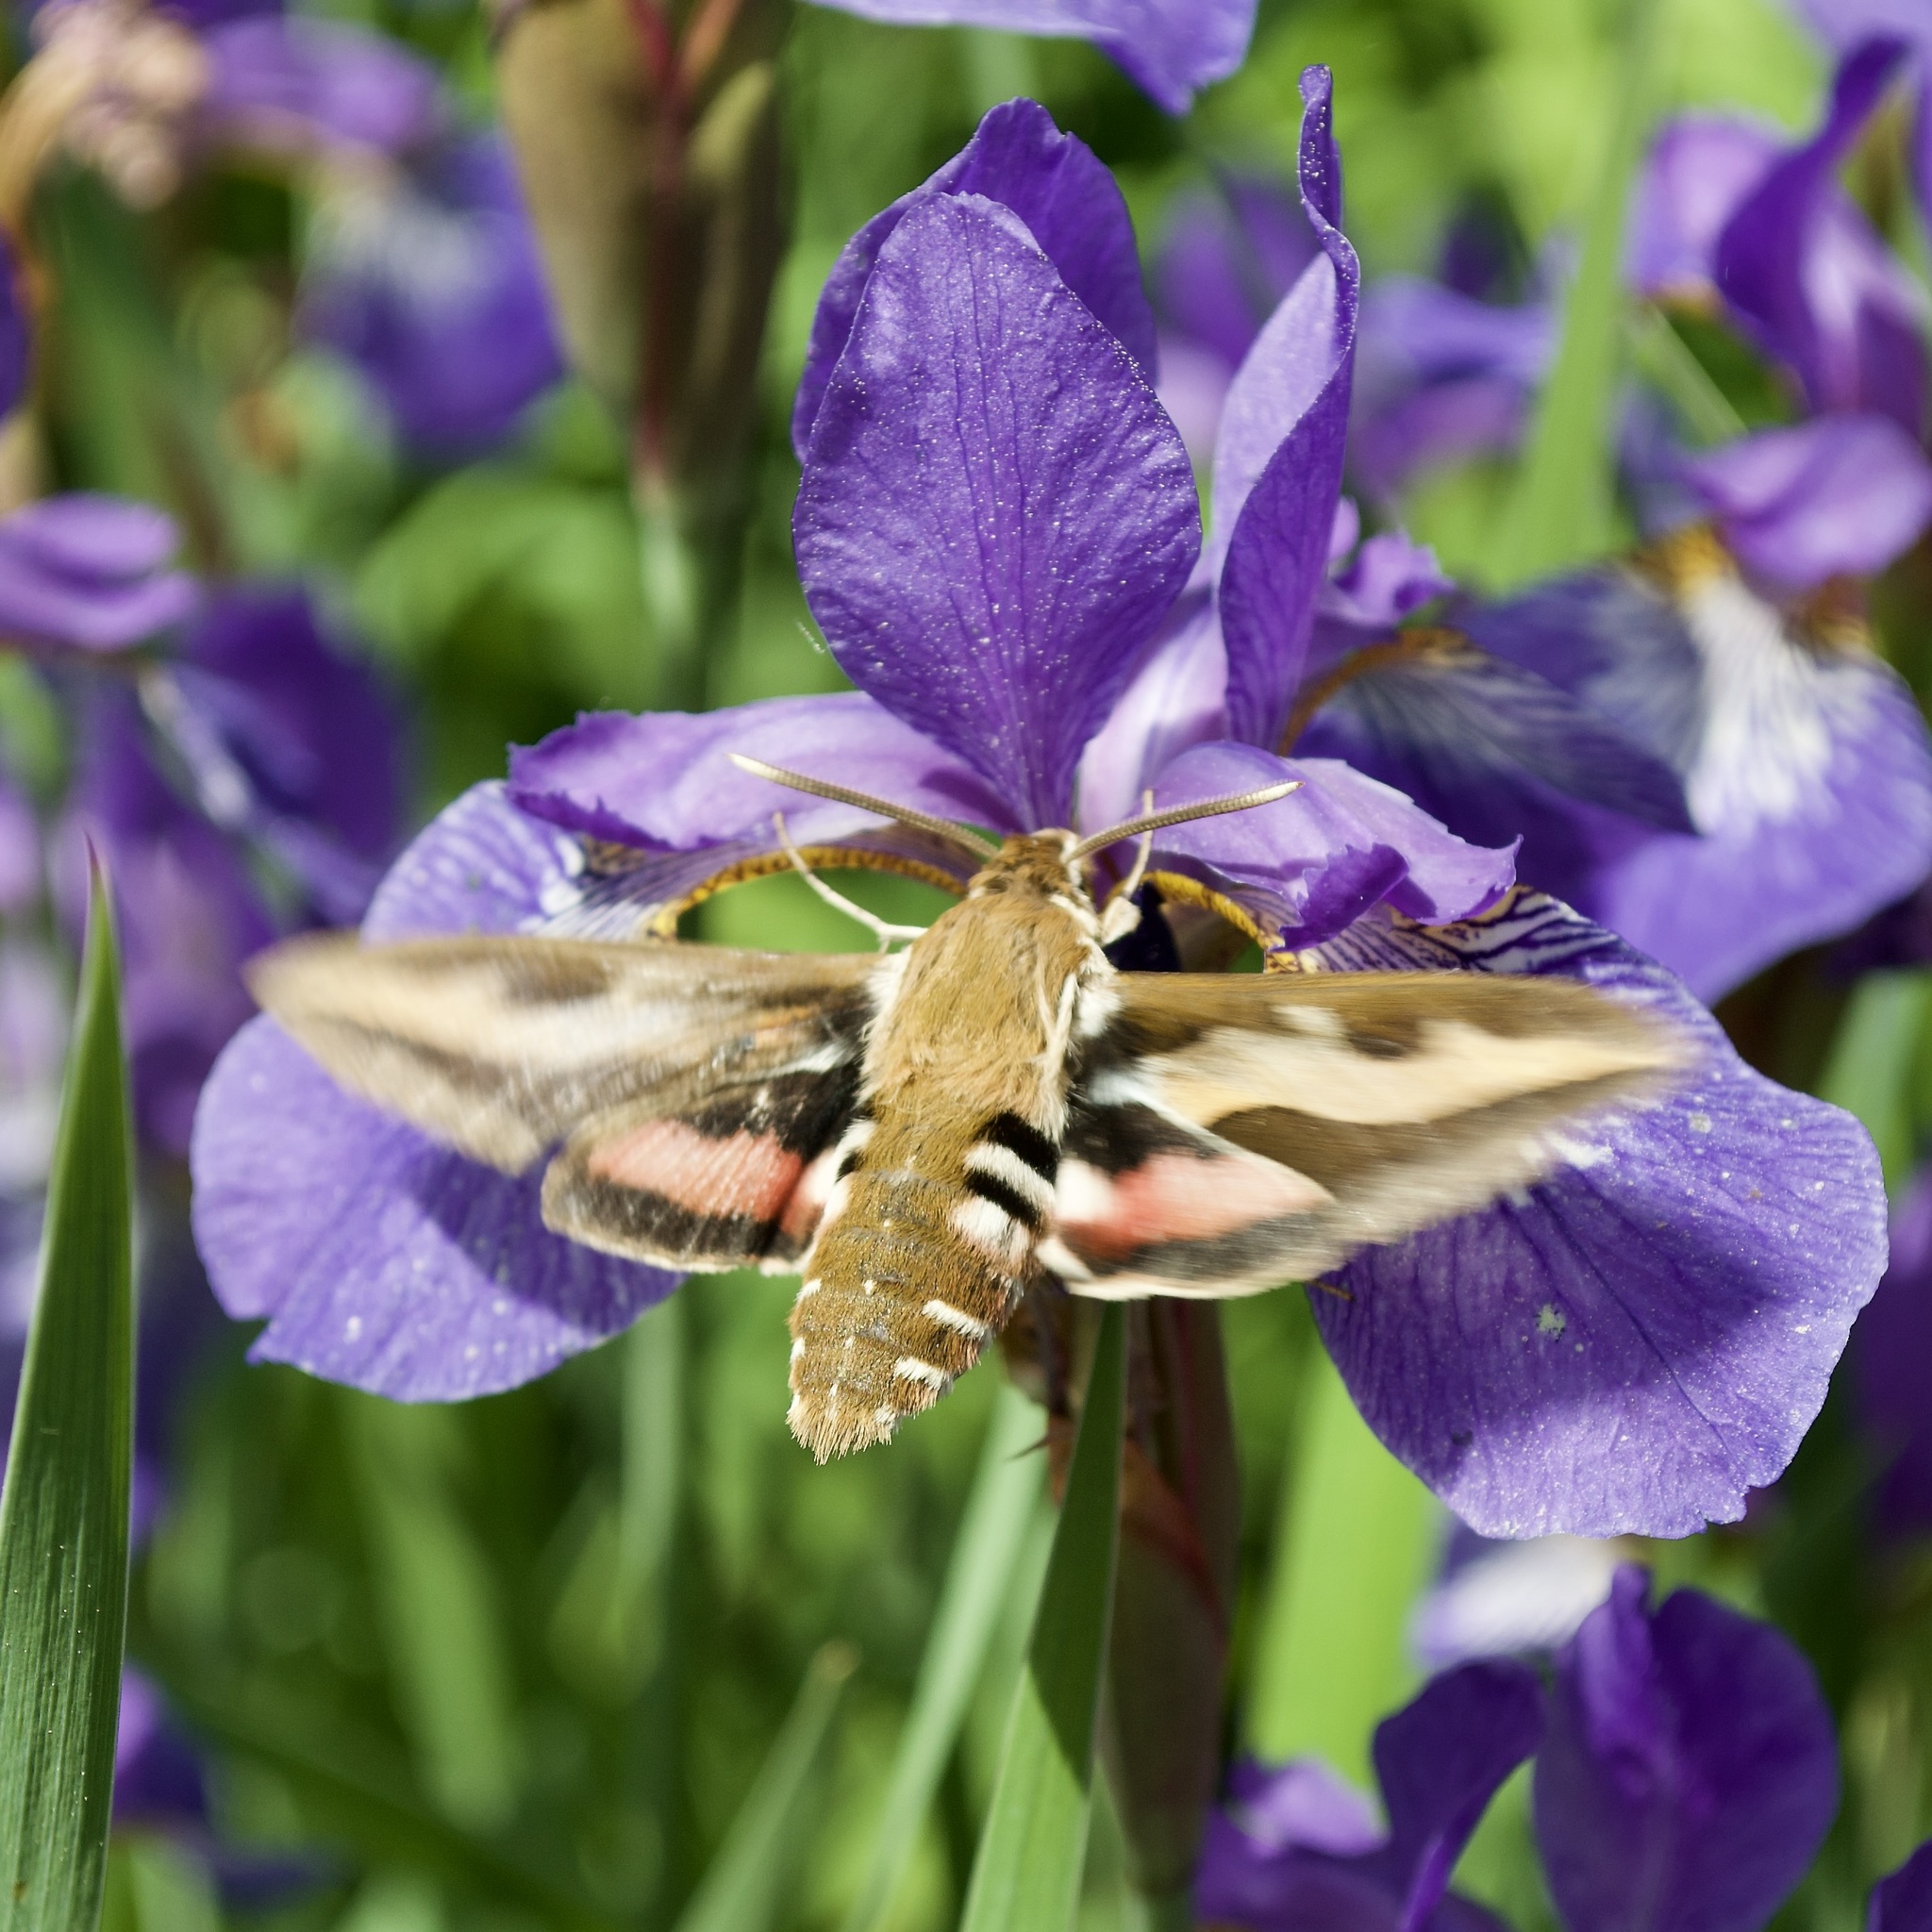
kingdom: Animalia
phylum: Arthropoda
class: Insecta
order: Lepidoptera
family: Sphingidae
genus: Hyles
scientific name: Hyles gallii
